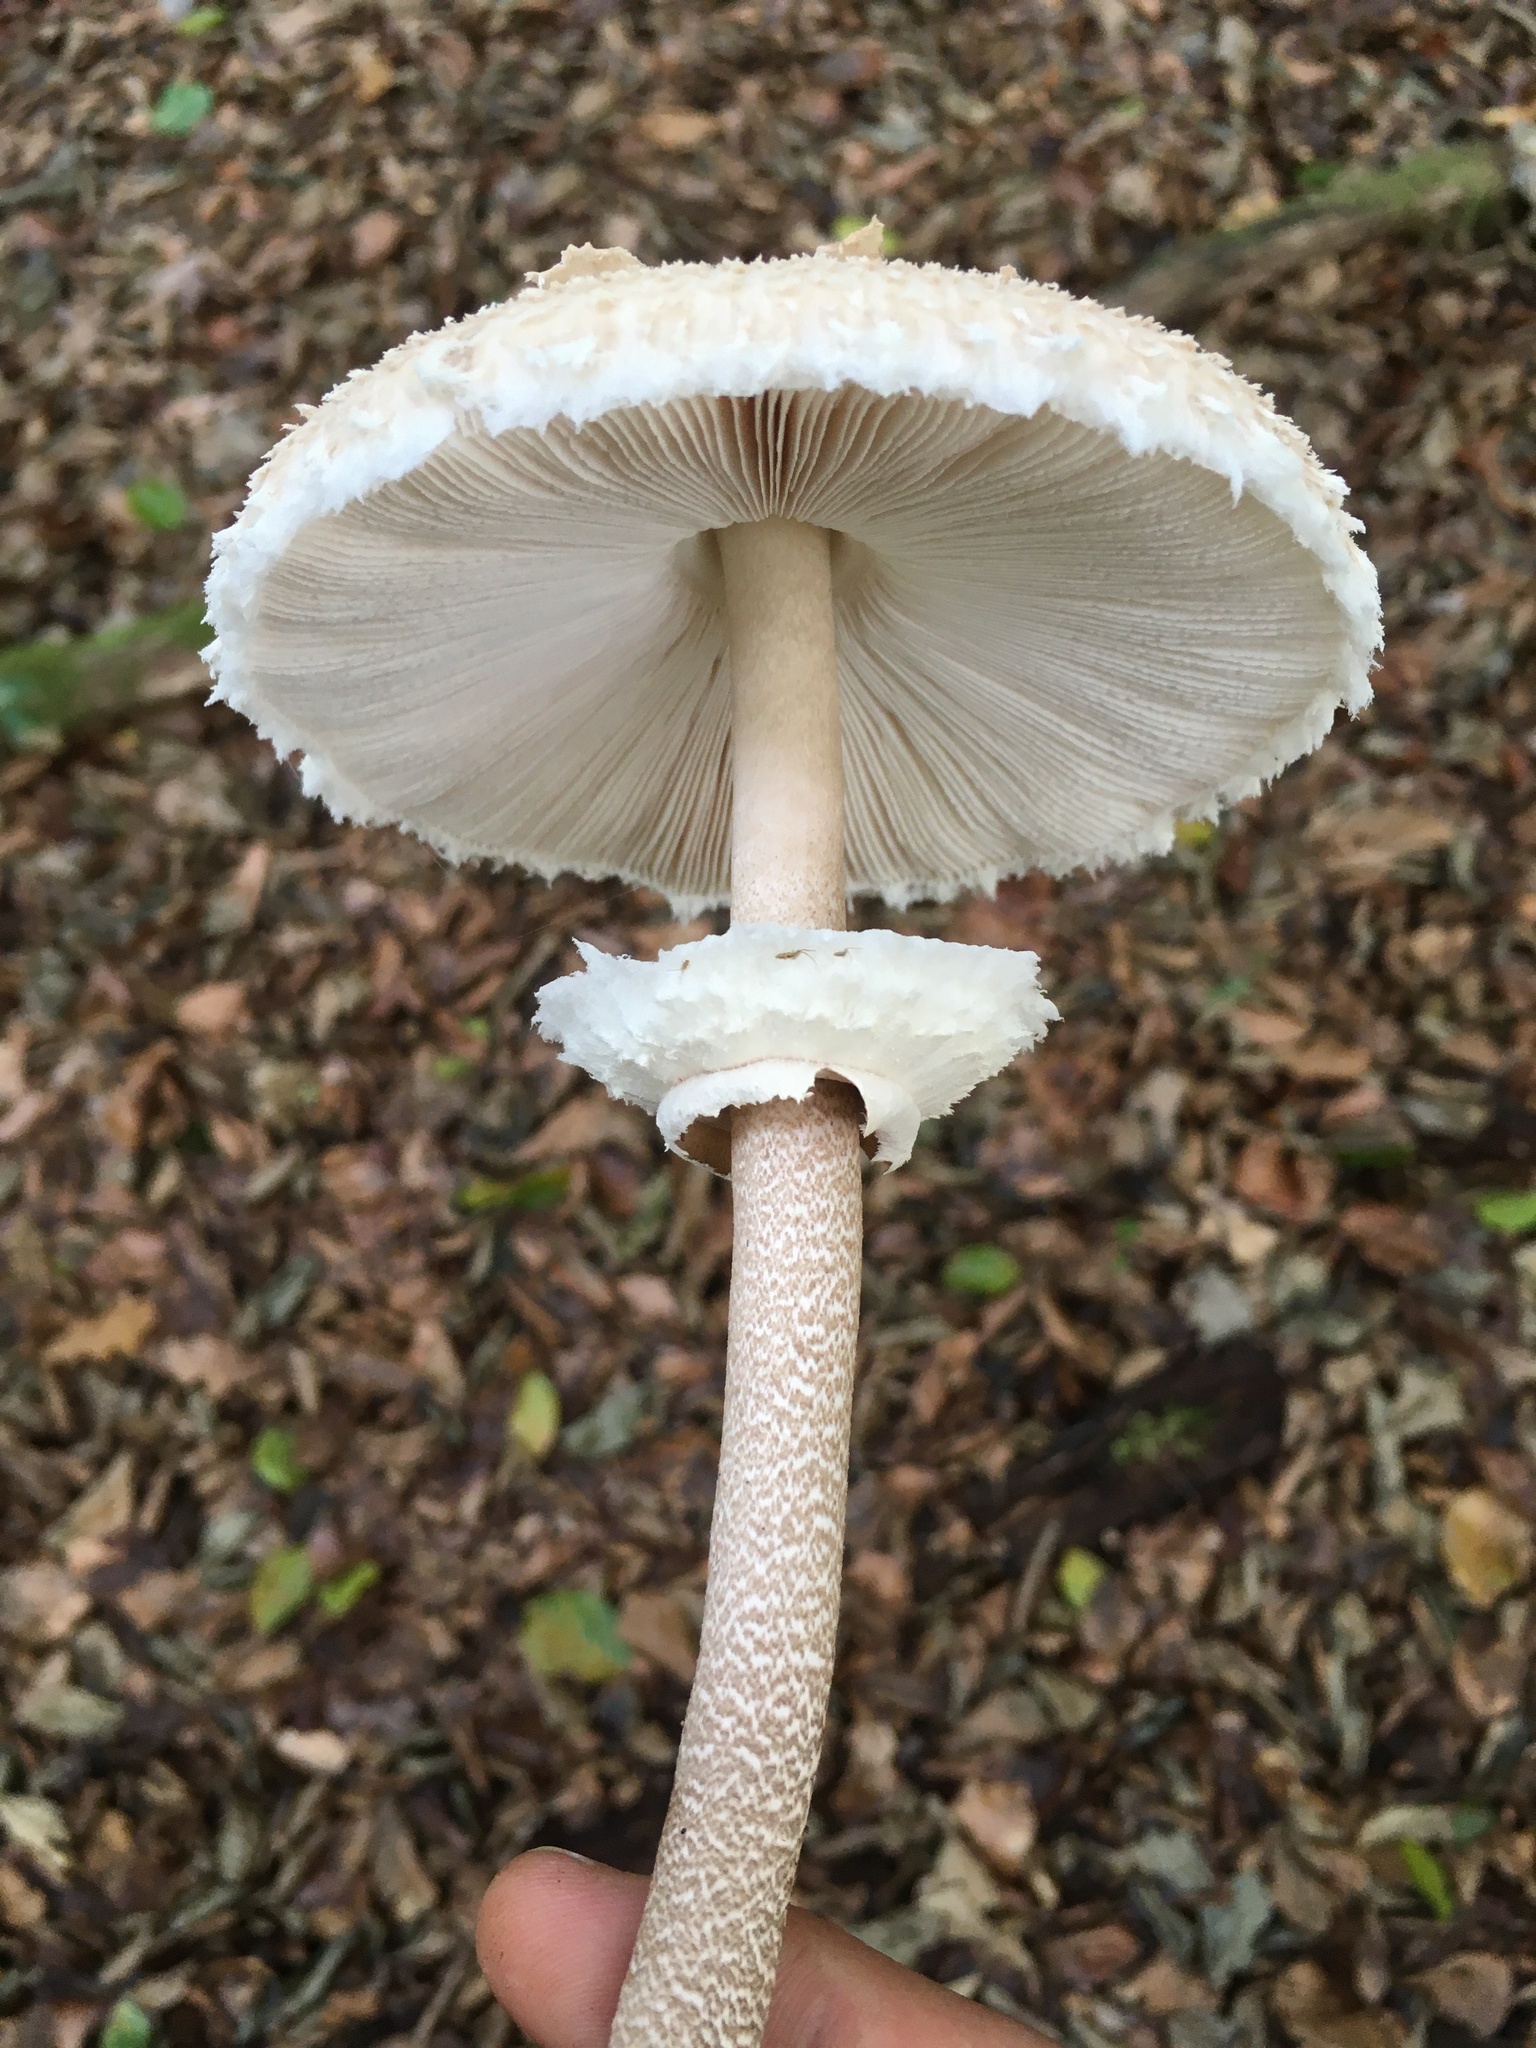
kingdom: Fungi
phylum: Basidiomycota
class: Agaricomycetes
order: Agaricales
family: Agaricaceae
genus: Macrolepiota
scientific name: Macrolepiota procera
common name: Parasol
